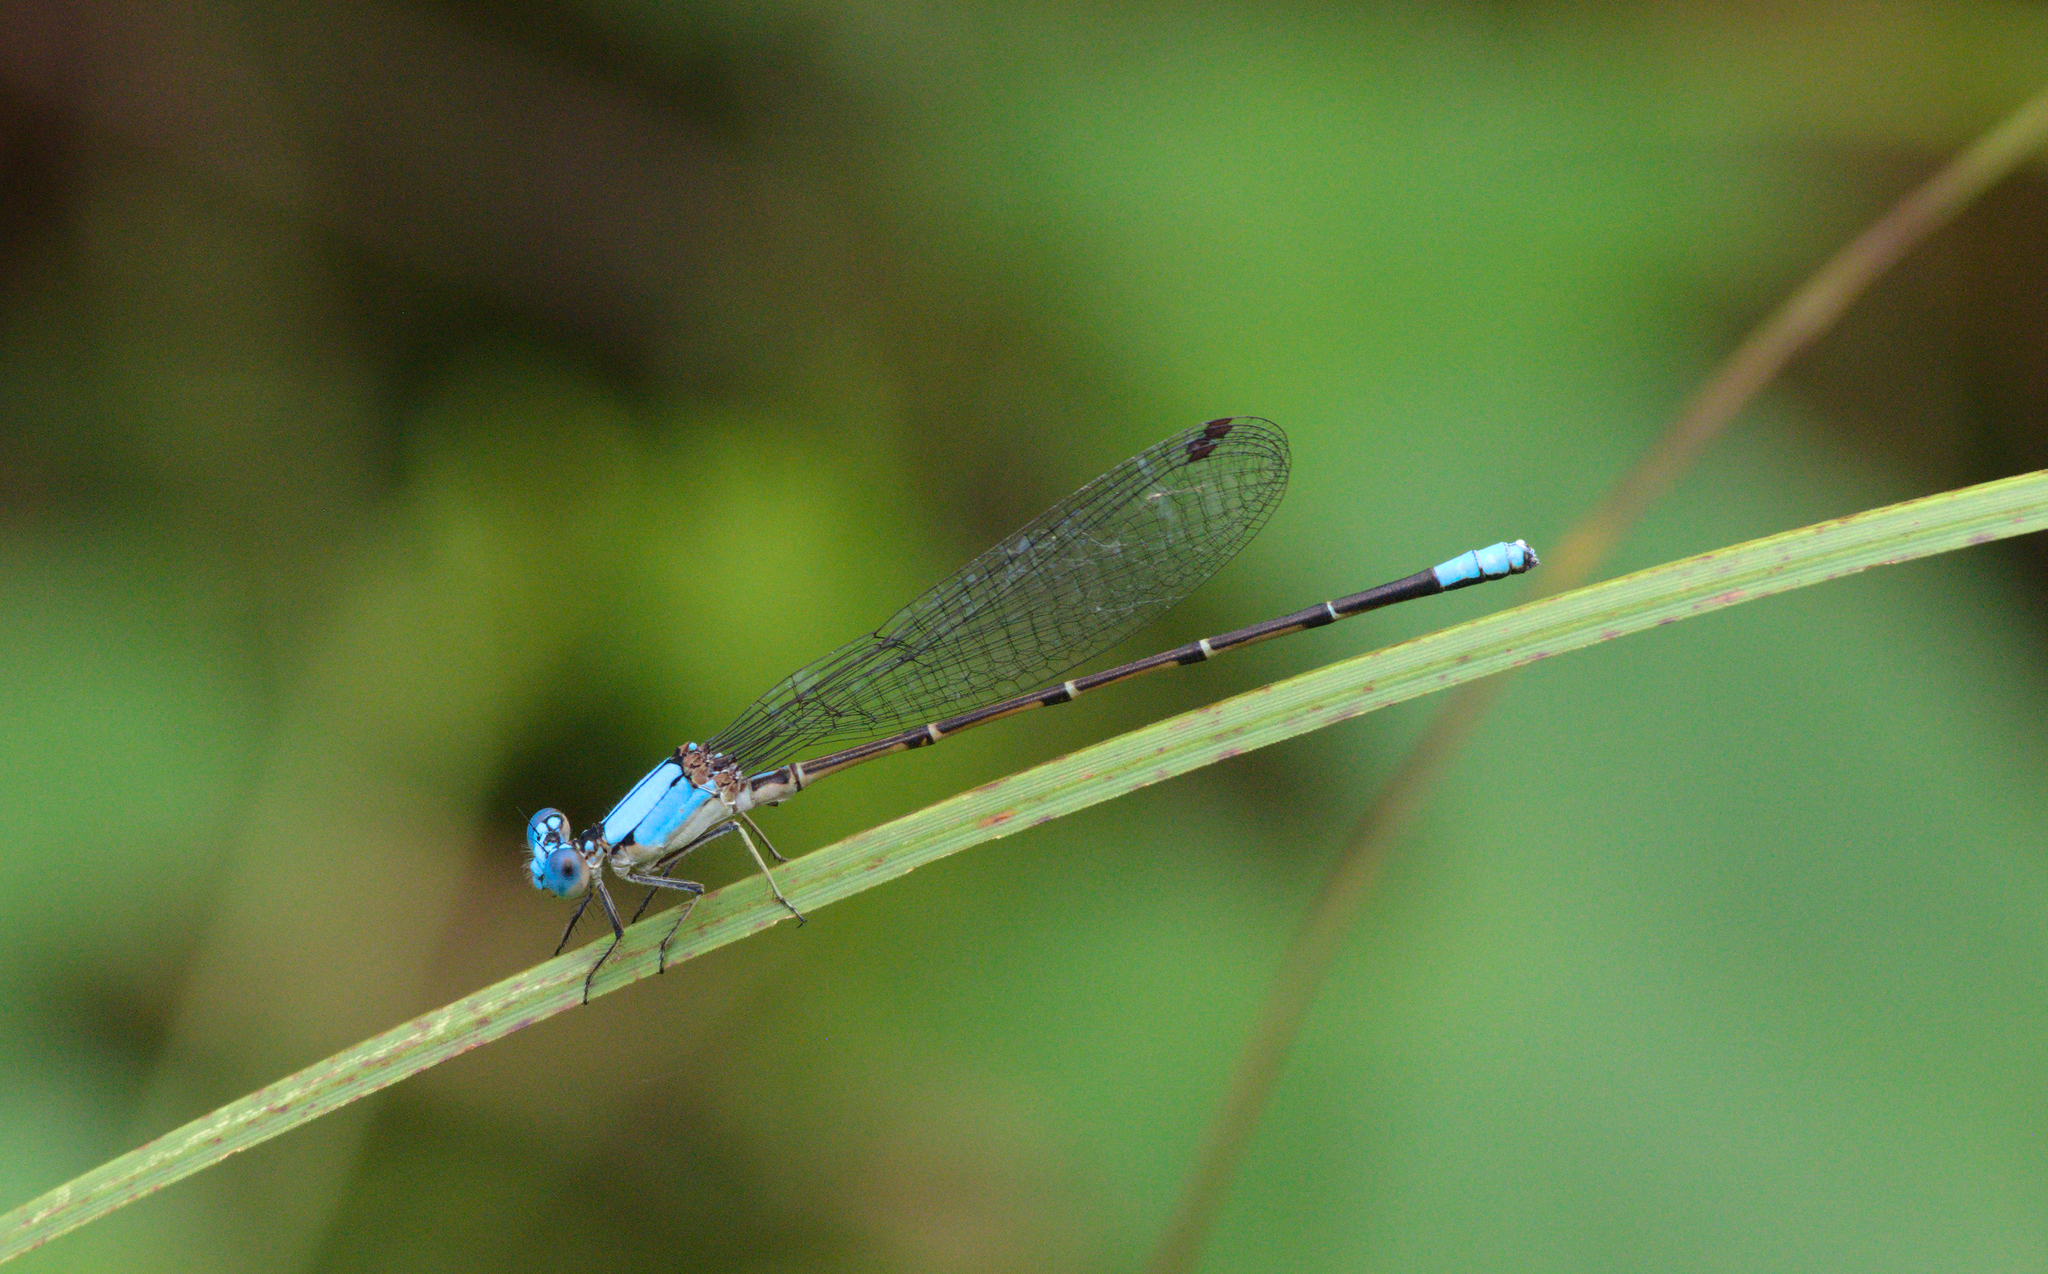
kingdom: Animalia
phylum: Arthropoda
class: Insecta
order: Odonata
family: Coenagrionidae
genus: Argia
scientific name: Argia apicalis
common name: Blue-fronted dancer
